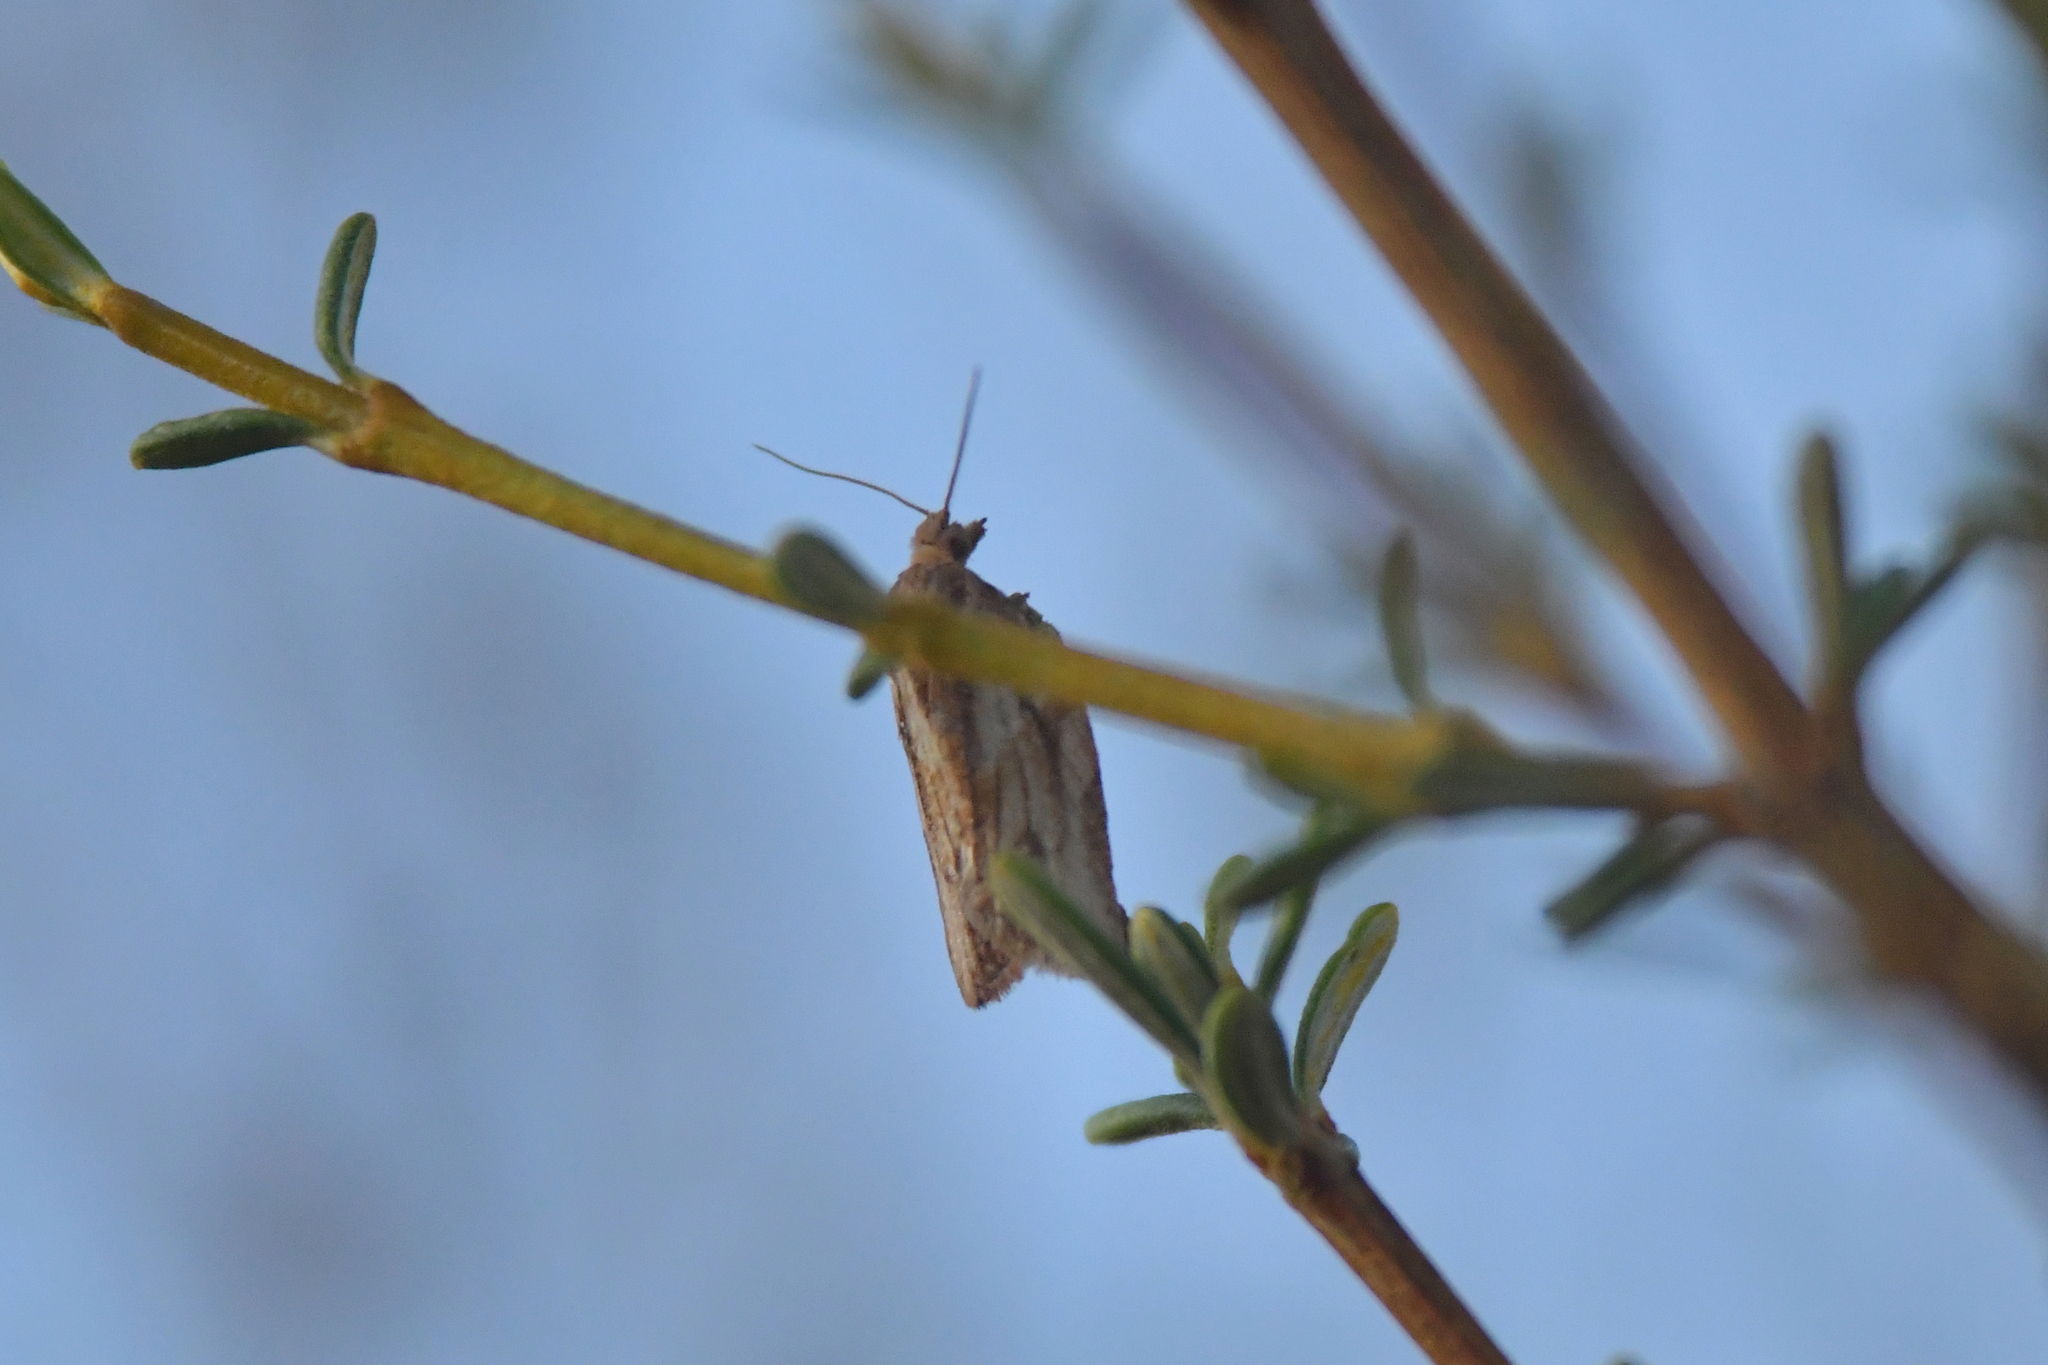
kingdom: Animalia
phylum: Arthropoda
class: Insecta
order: Lepidoptera
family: Tortricidae
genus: Epiphyas
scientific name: Epiphyas postvittana
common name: Light brown apple moth
